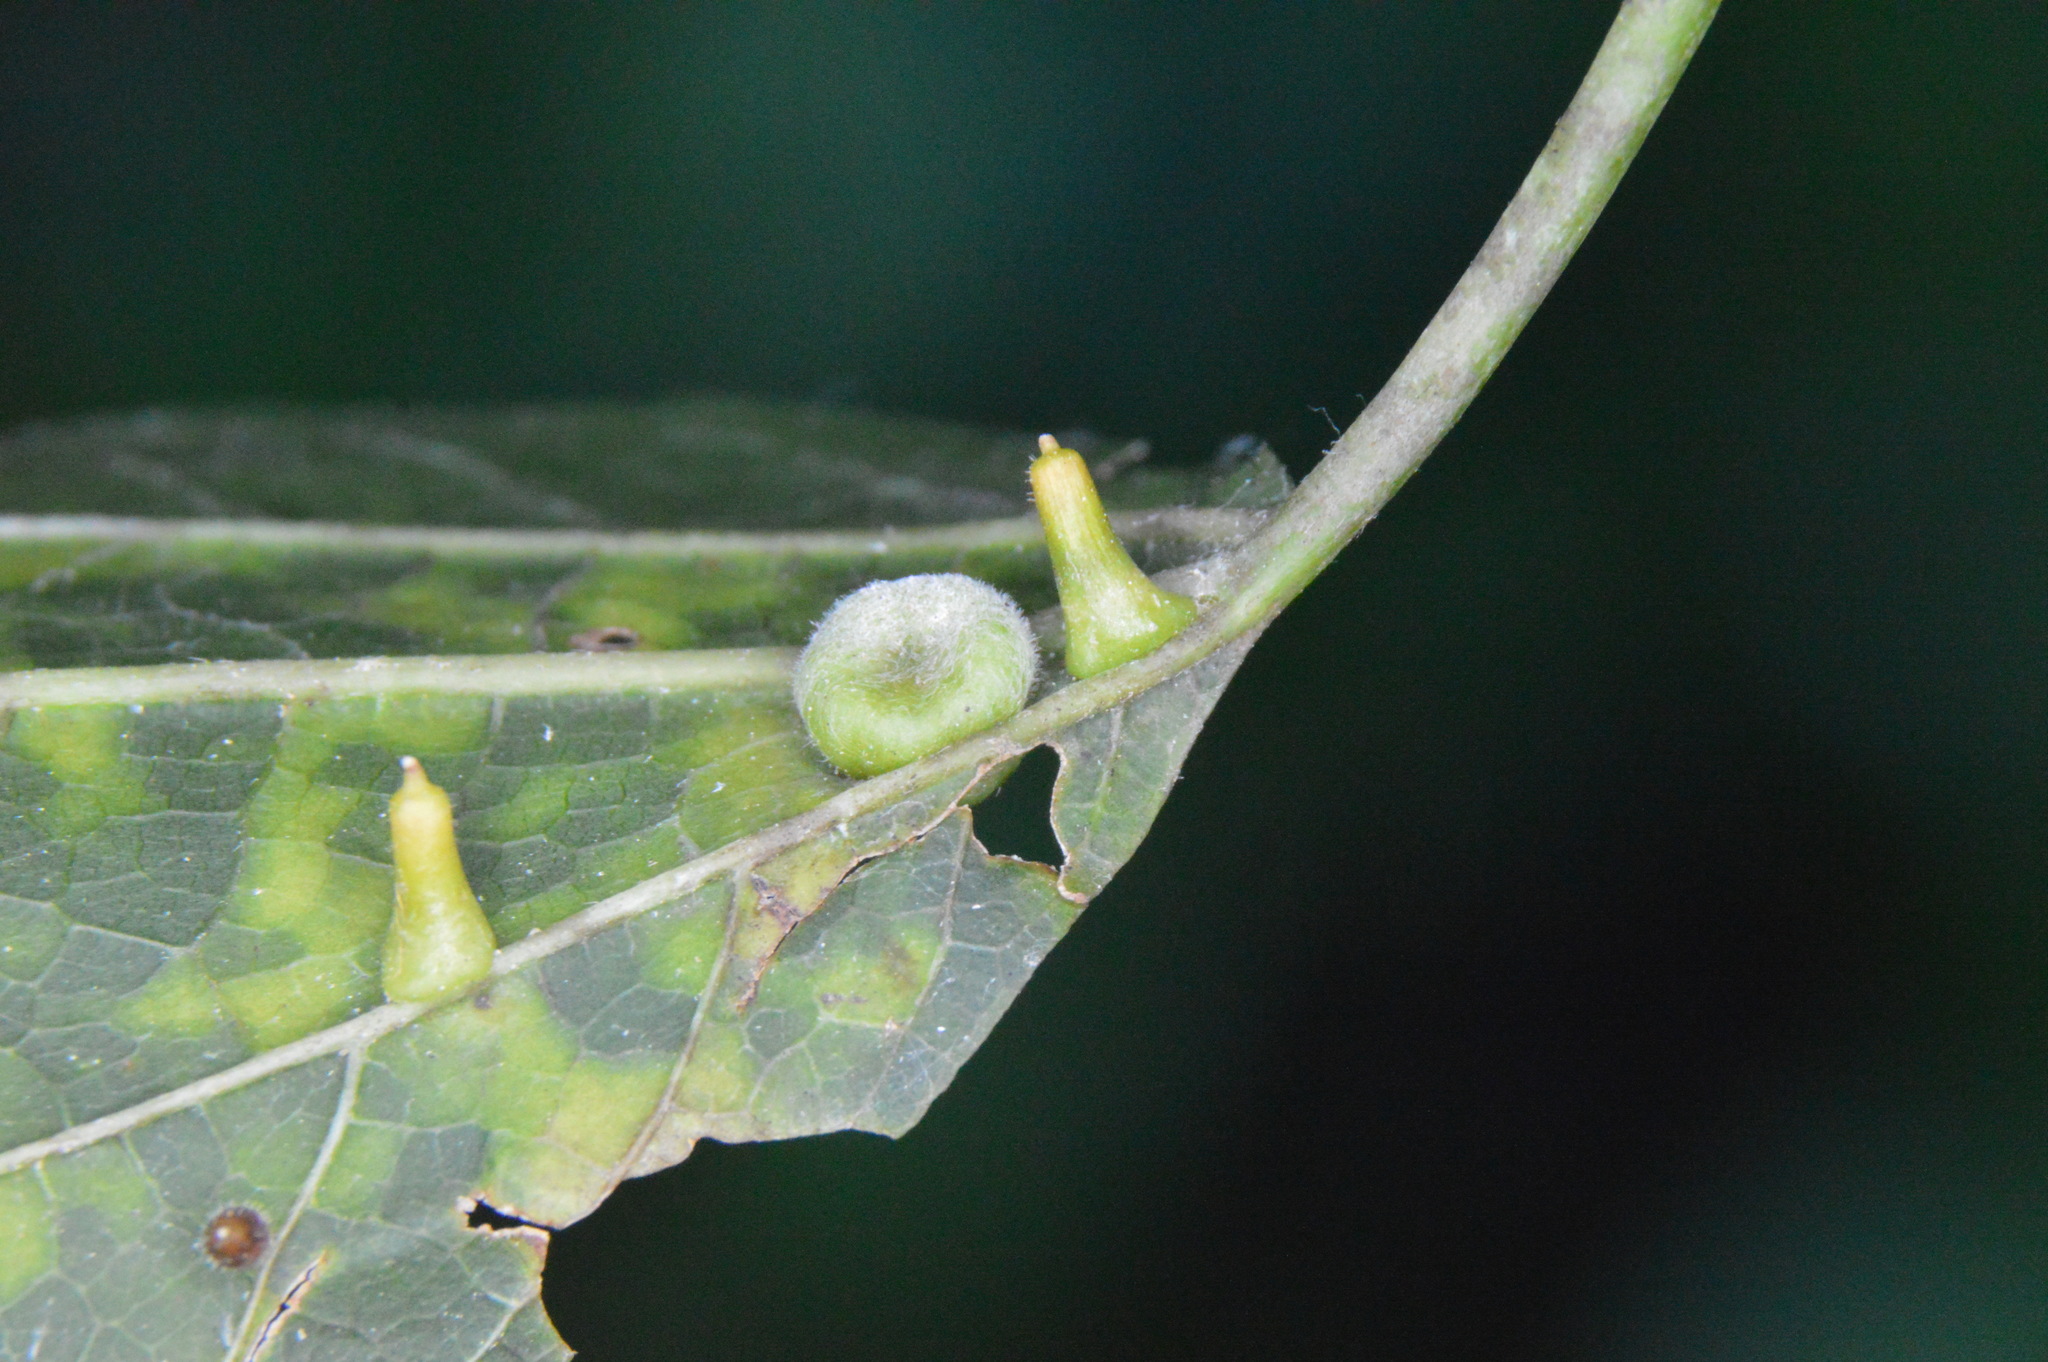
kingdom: Animalia
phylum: Arthropoda
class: Insecta
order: Hemiptera
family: Aphalaridae
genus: Pachypsylla
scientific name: Pachypsylla celtidismamma
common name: Hackberry nipplegall psyllid
